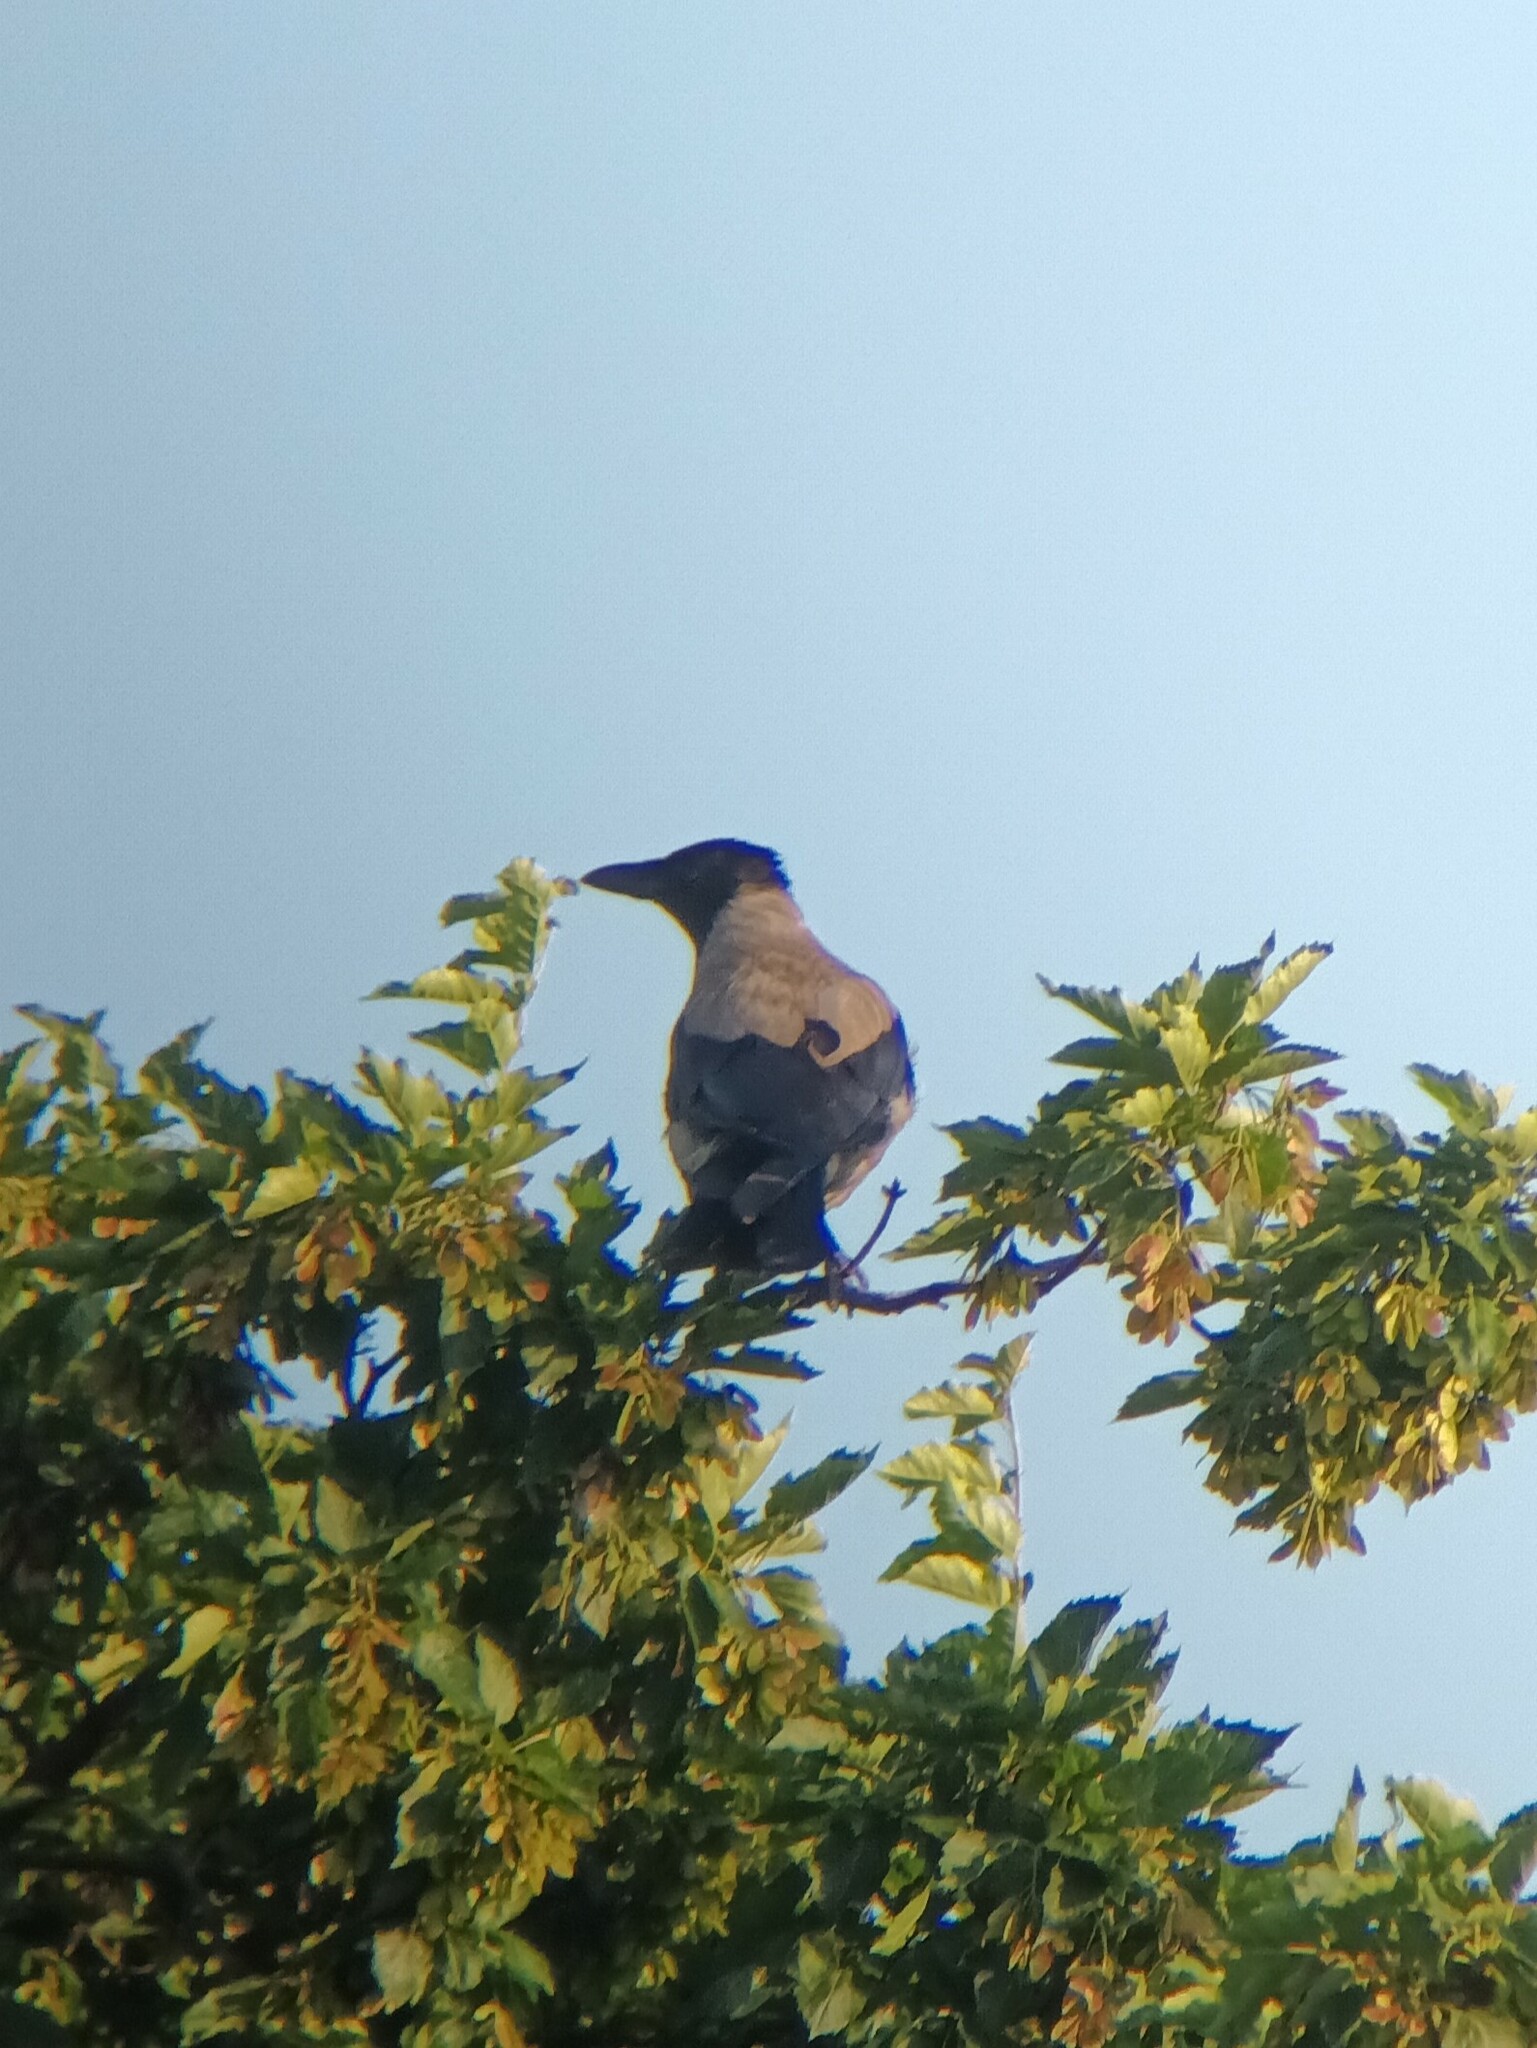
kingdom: Animalia
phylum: Chordata
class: Aves
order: Passeriformes
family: Corvidae
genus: Corvus
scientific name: Corvus cornix
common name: Hooded crow
